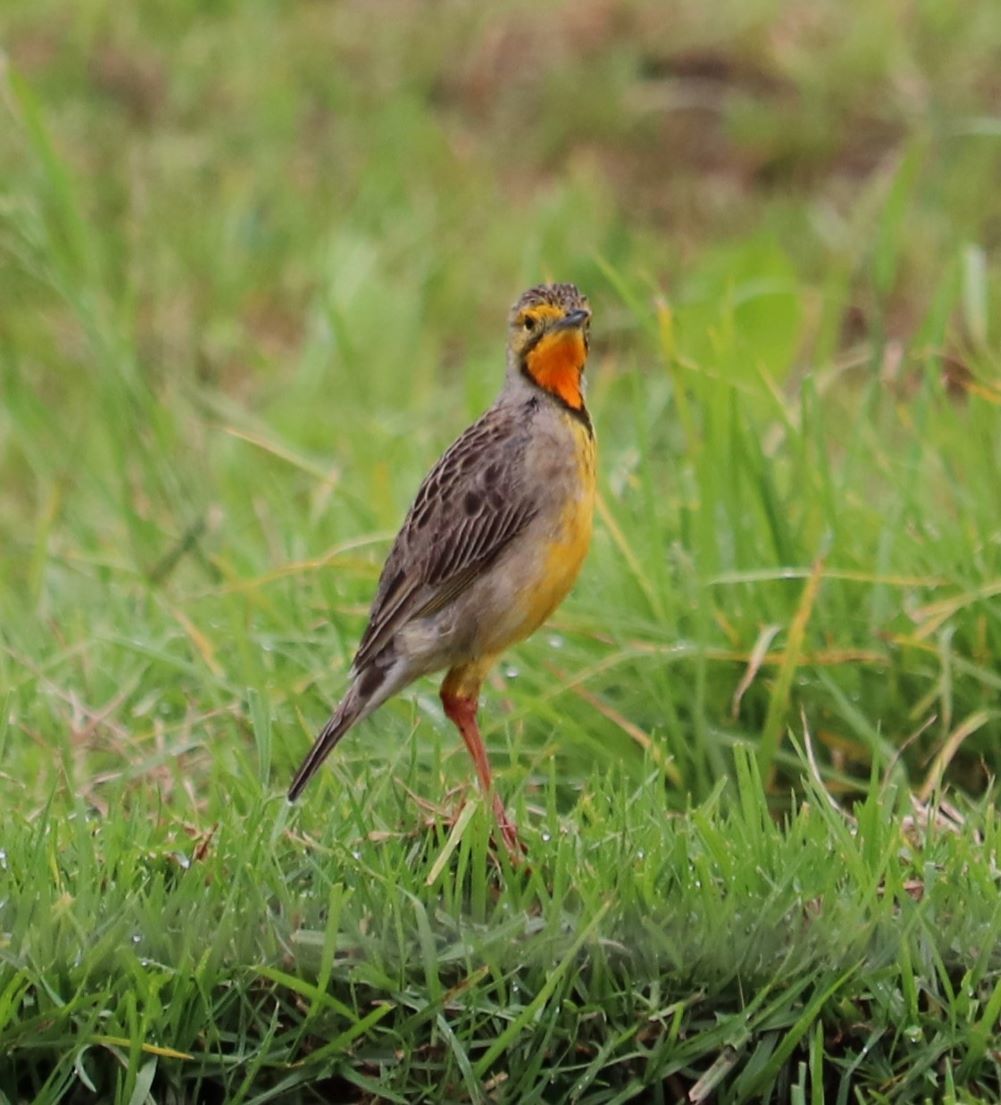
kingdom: Animalia
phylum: Chordata
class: Aves
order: Passeriformes
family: Motacillidae
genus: Macronyx
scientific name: Macronyx capensis
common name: Cape longclaw
